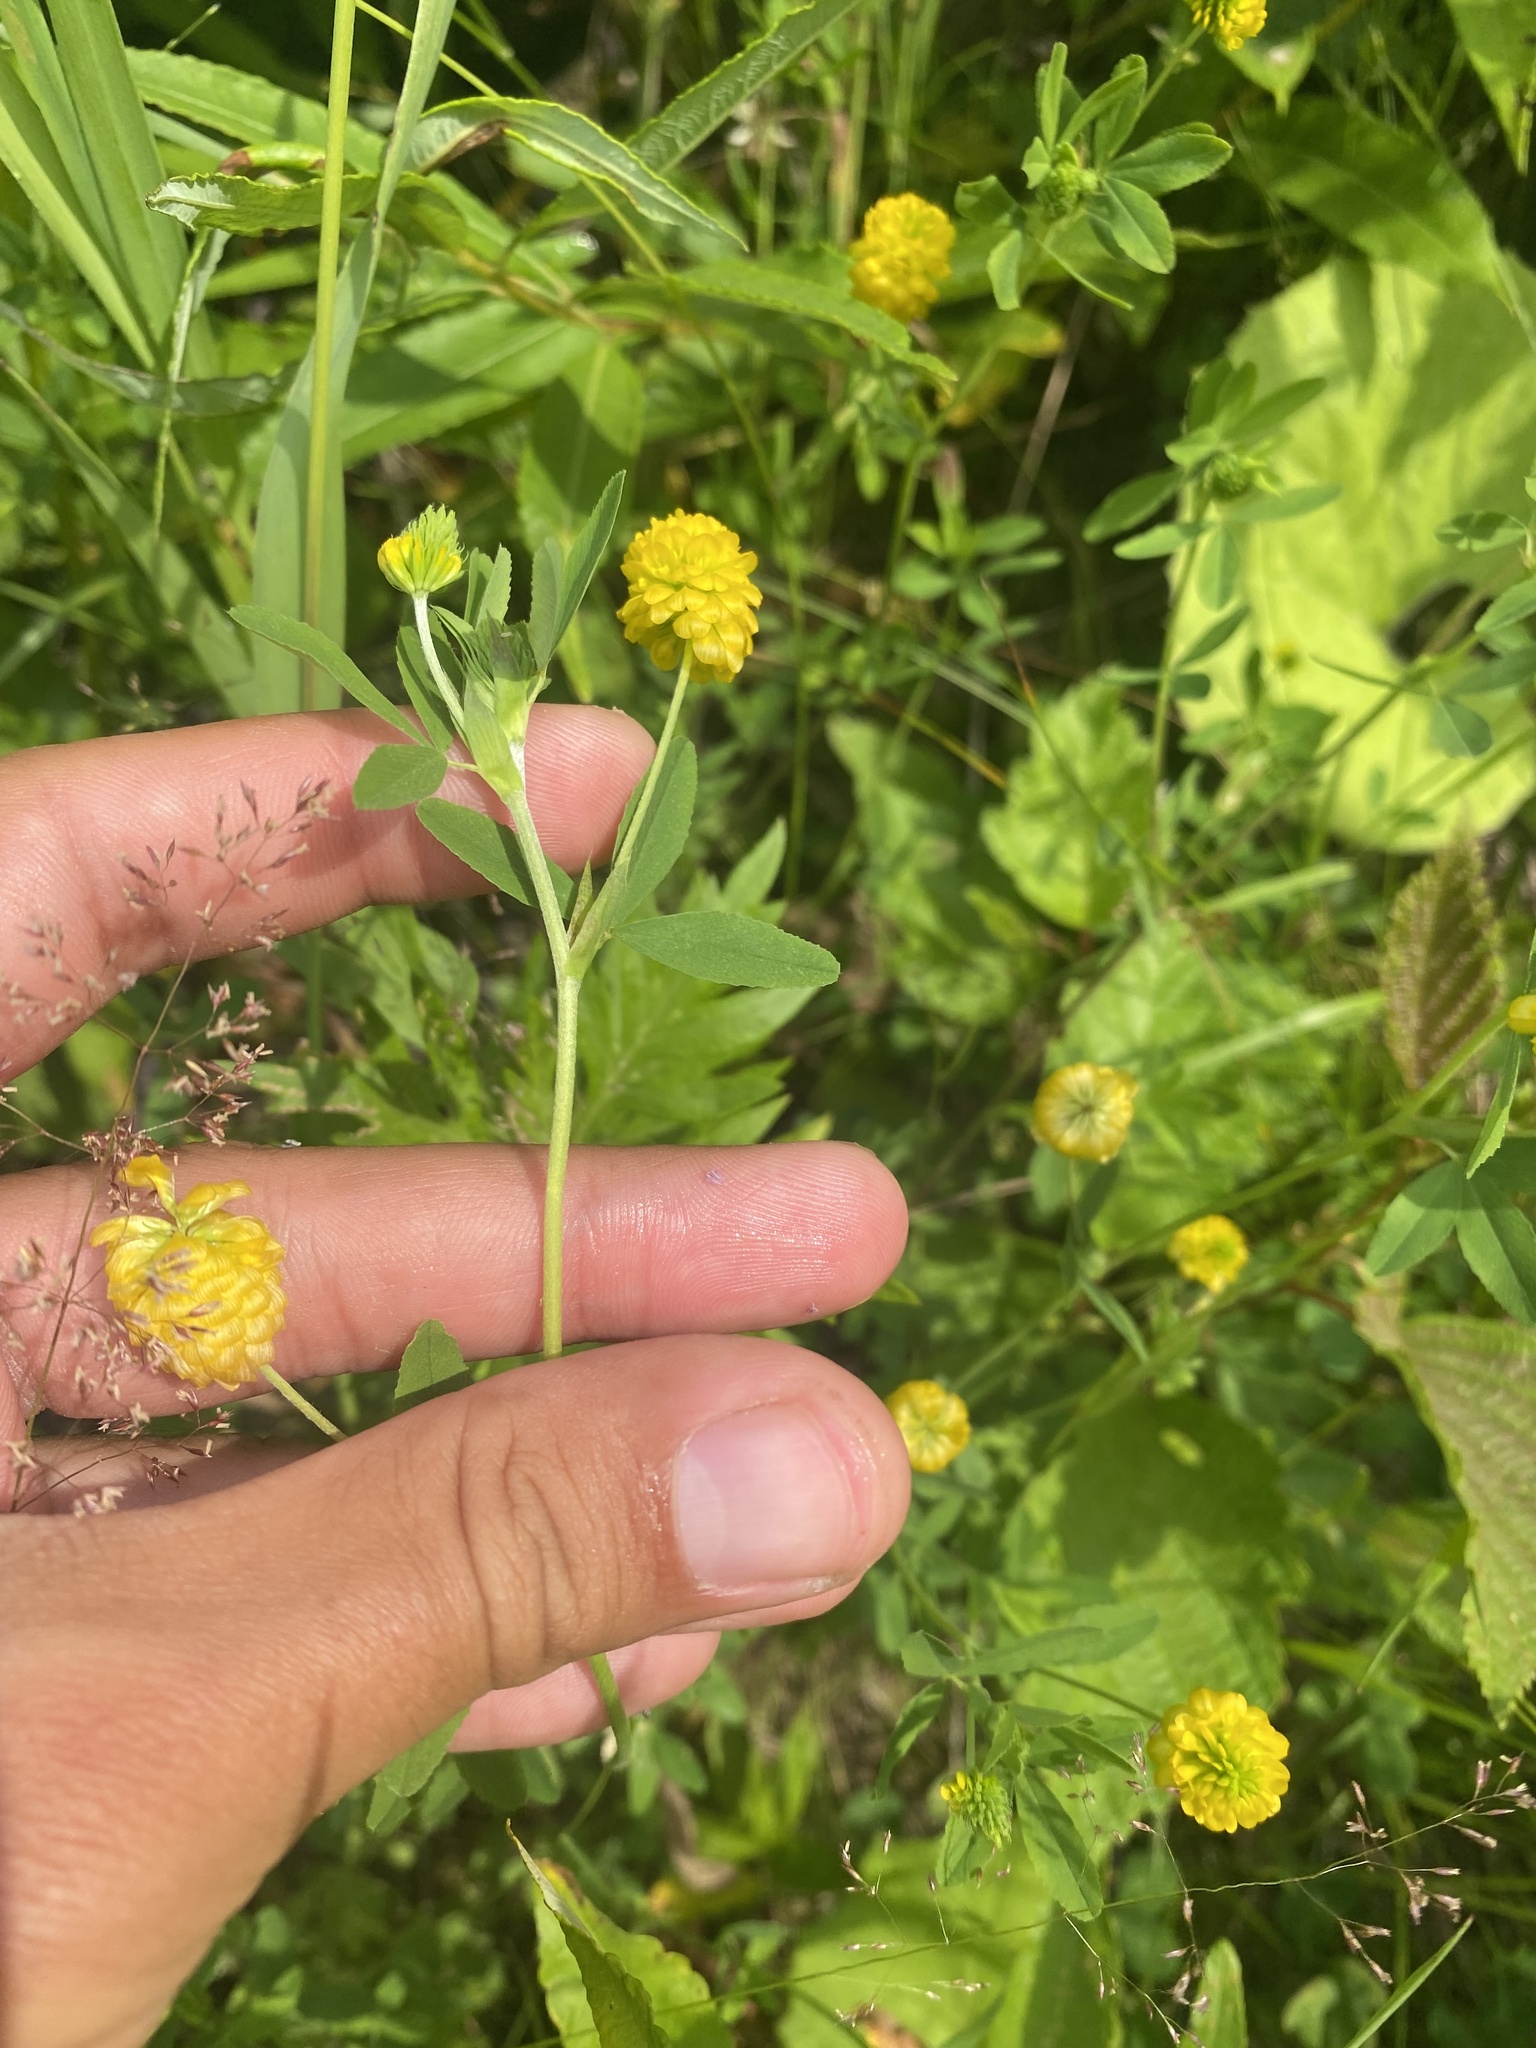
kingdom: Plantae
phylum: Tracheophyta
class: Magnoliopsida
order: Fabales
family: Fabaceae
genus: Trifolium
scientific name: Trifolium aureum
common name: Golden clover
